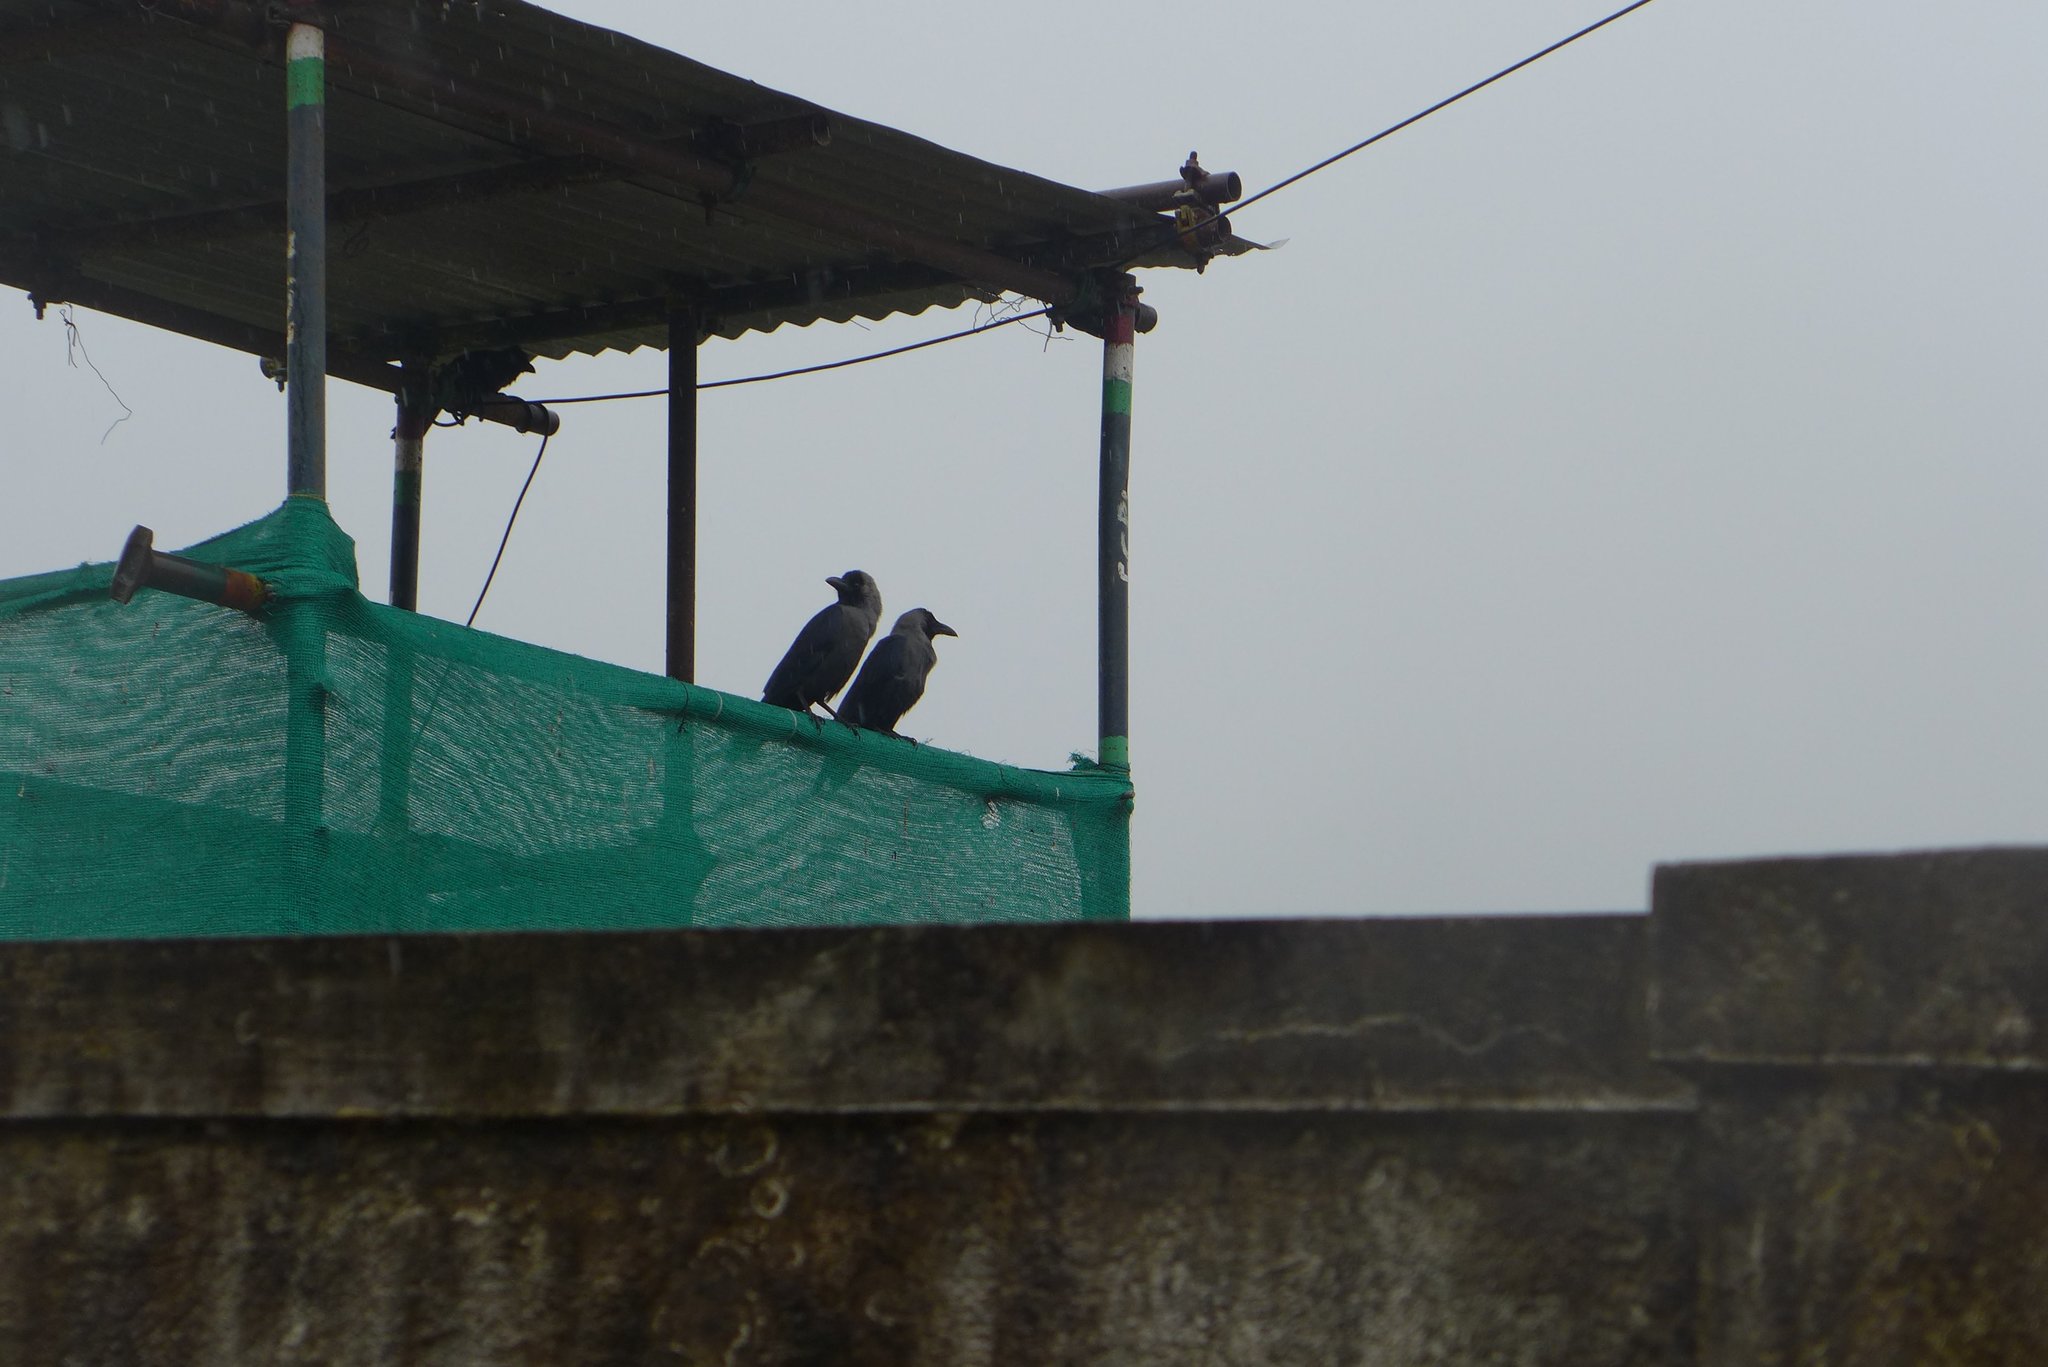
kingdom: Animalia
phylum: Chordata
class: Aves
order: Passeriformes
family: Corvidae
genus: Corvus
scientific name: Corvus splendens
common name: House crow
